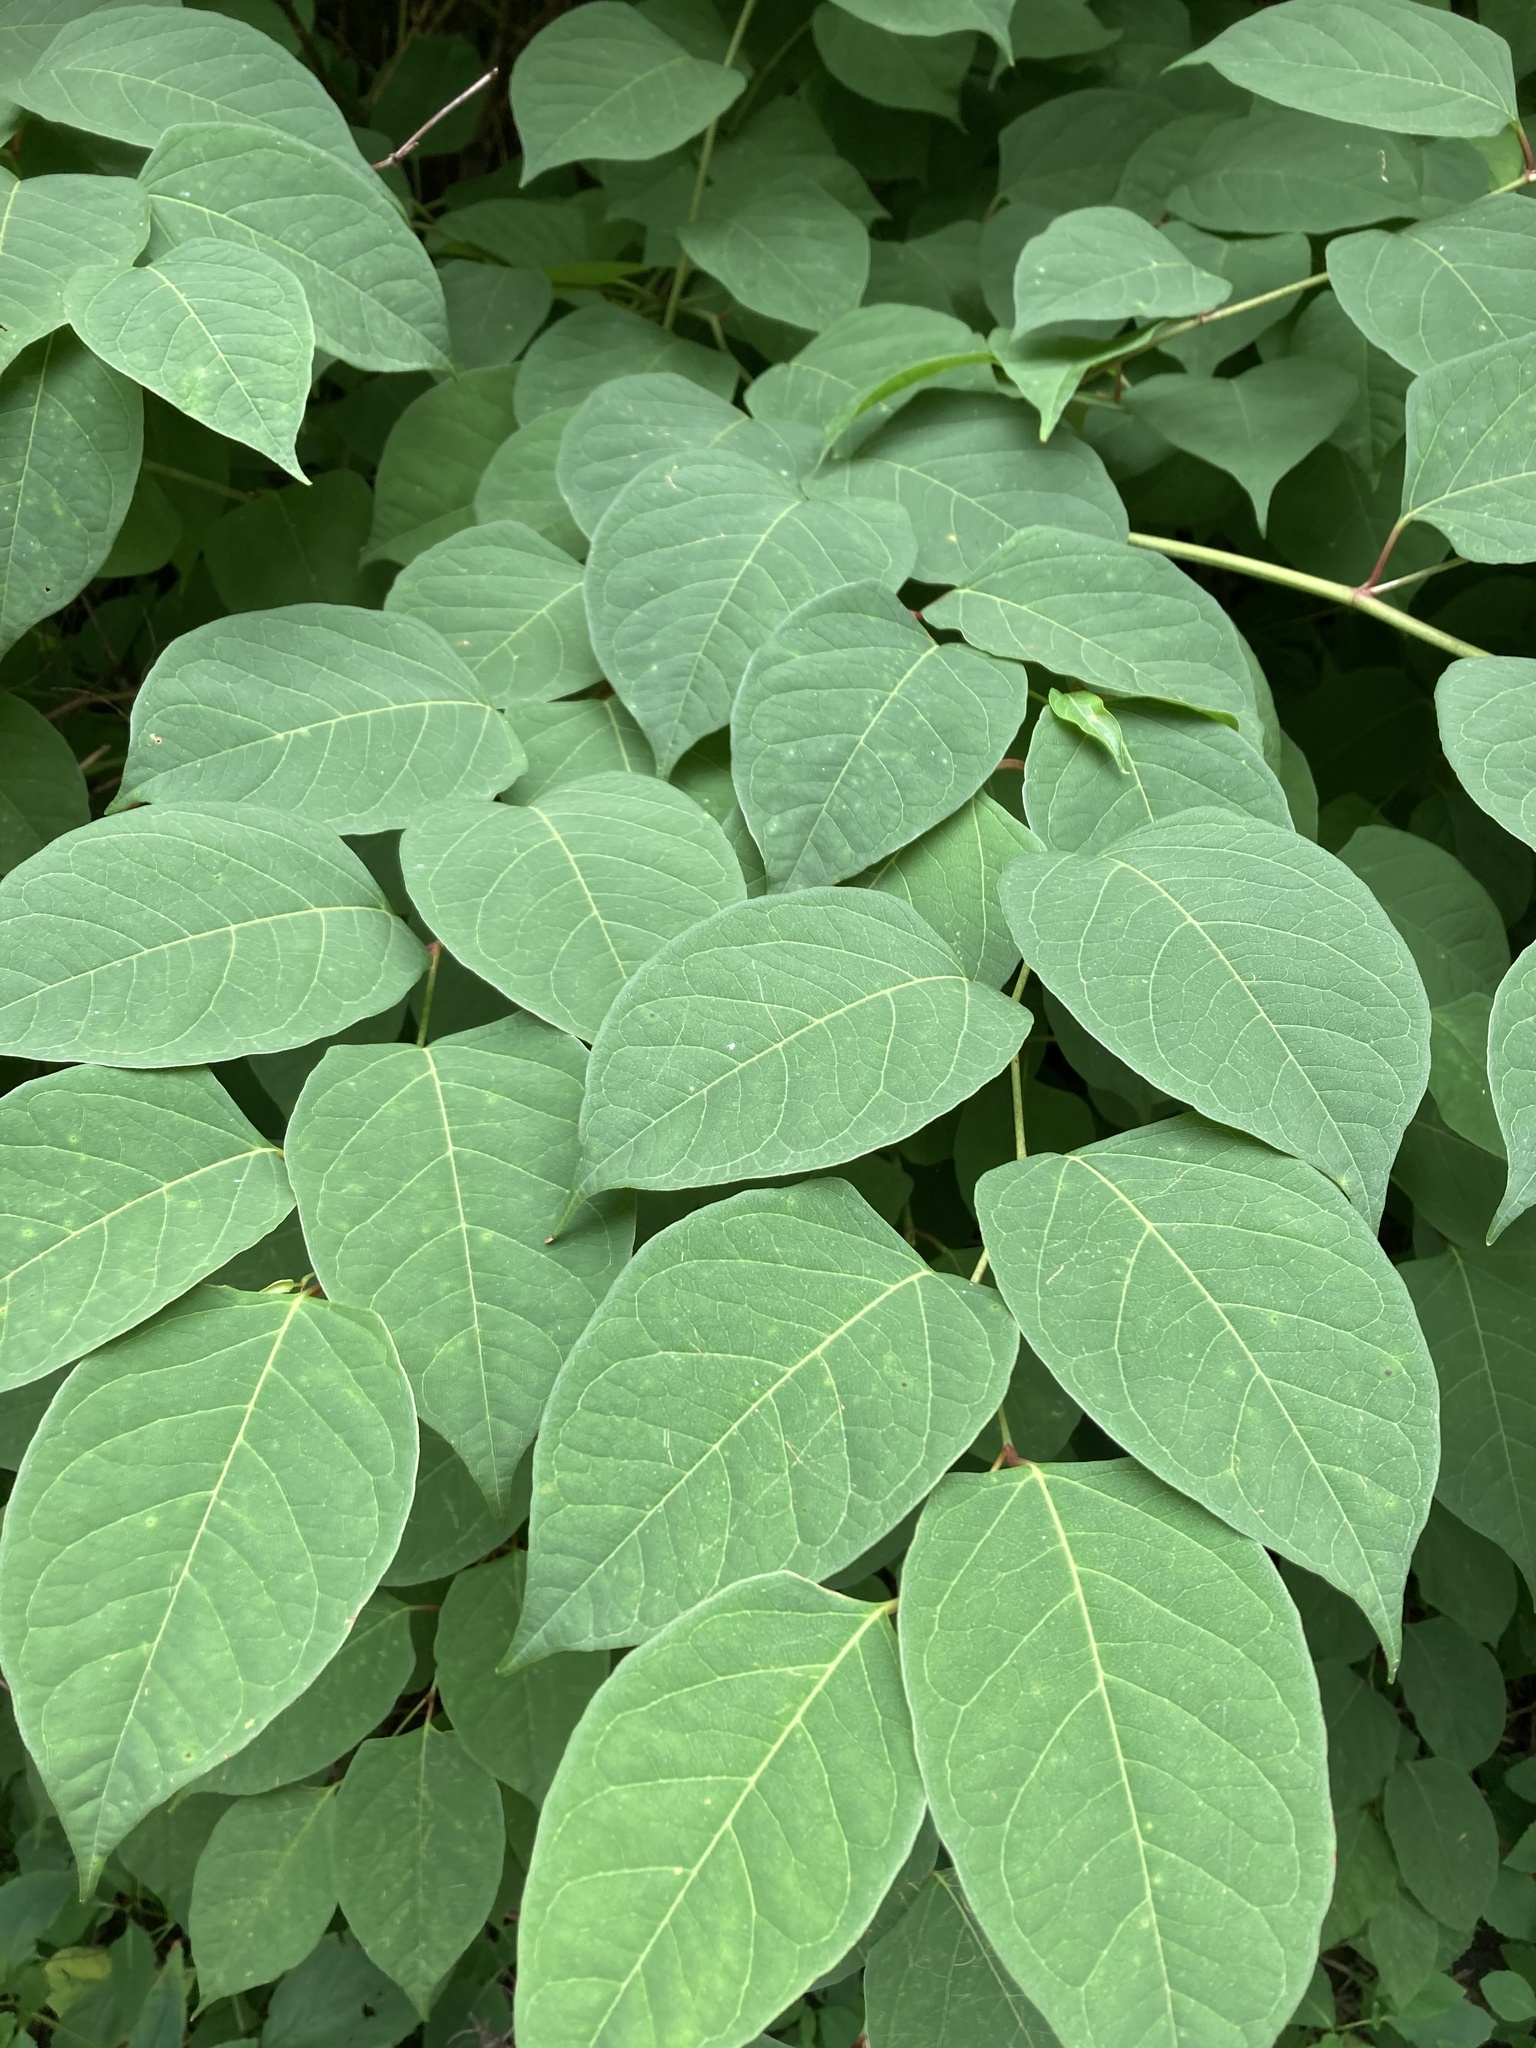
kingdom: Plantae
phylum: Tracheophyta
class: Magnoliopsida
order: Caryophyllales
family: Polygonaceae
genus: Reynoutria
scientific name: Reynoutria japonica
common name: Japanese knotweed
